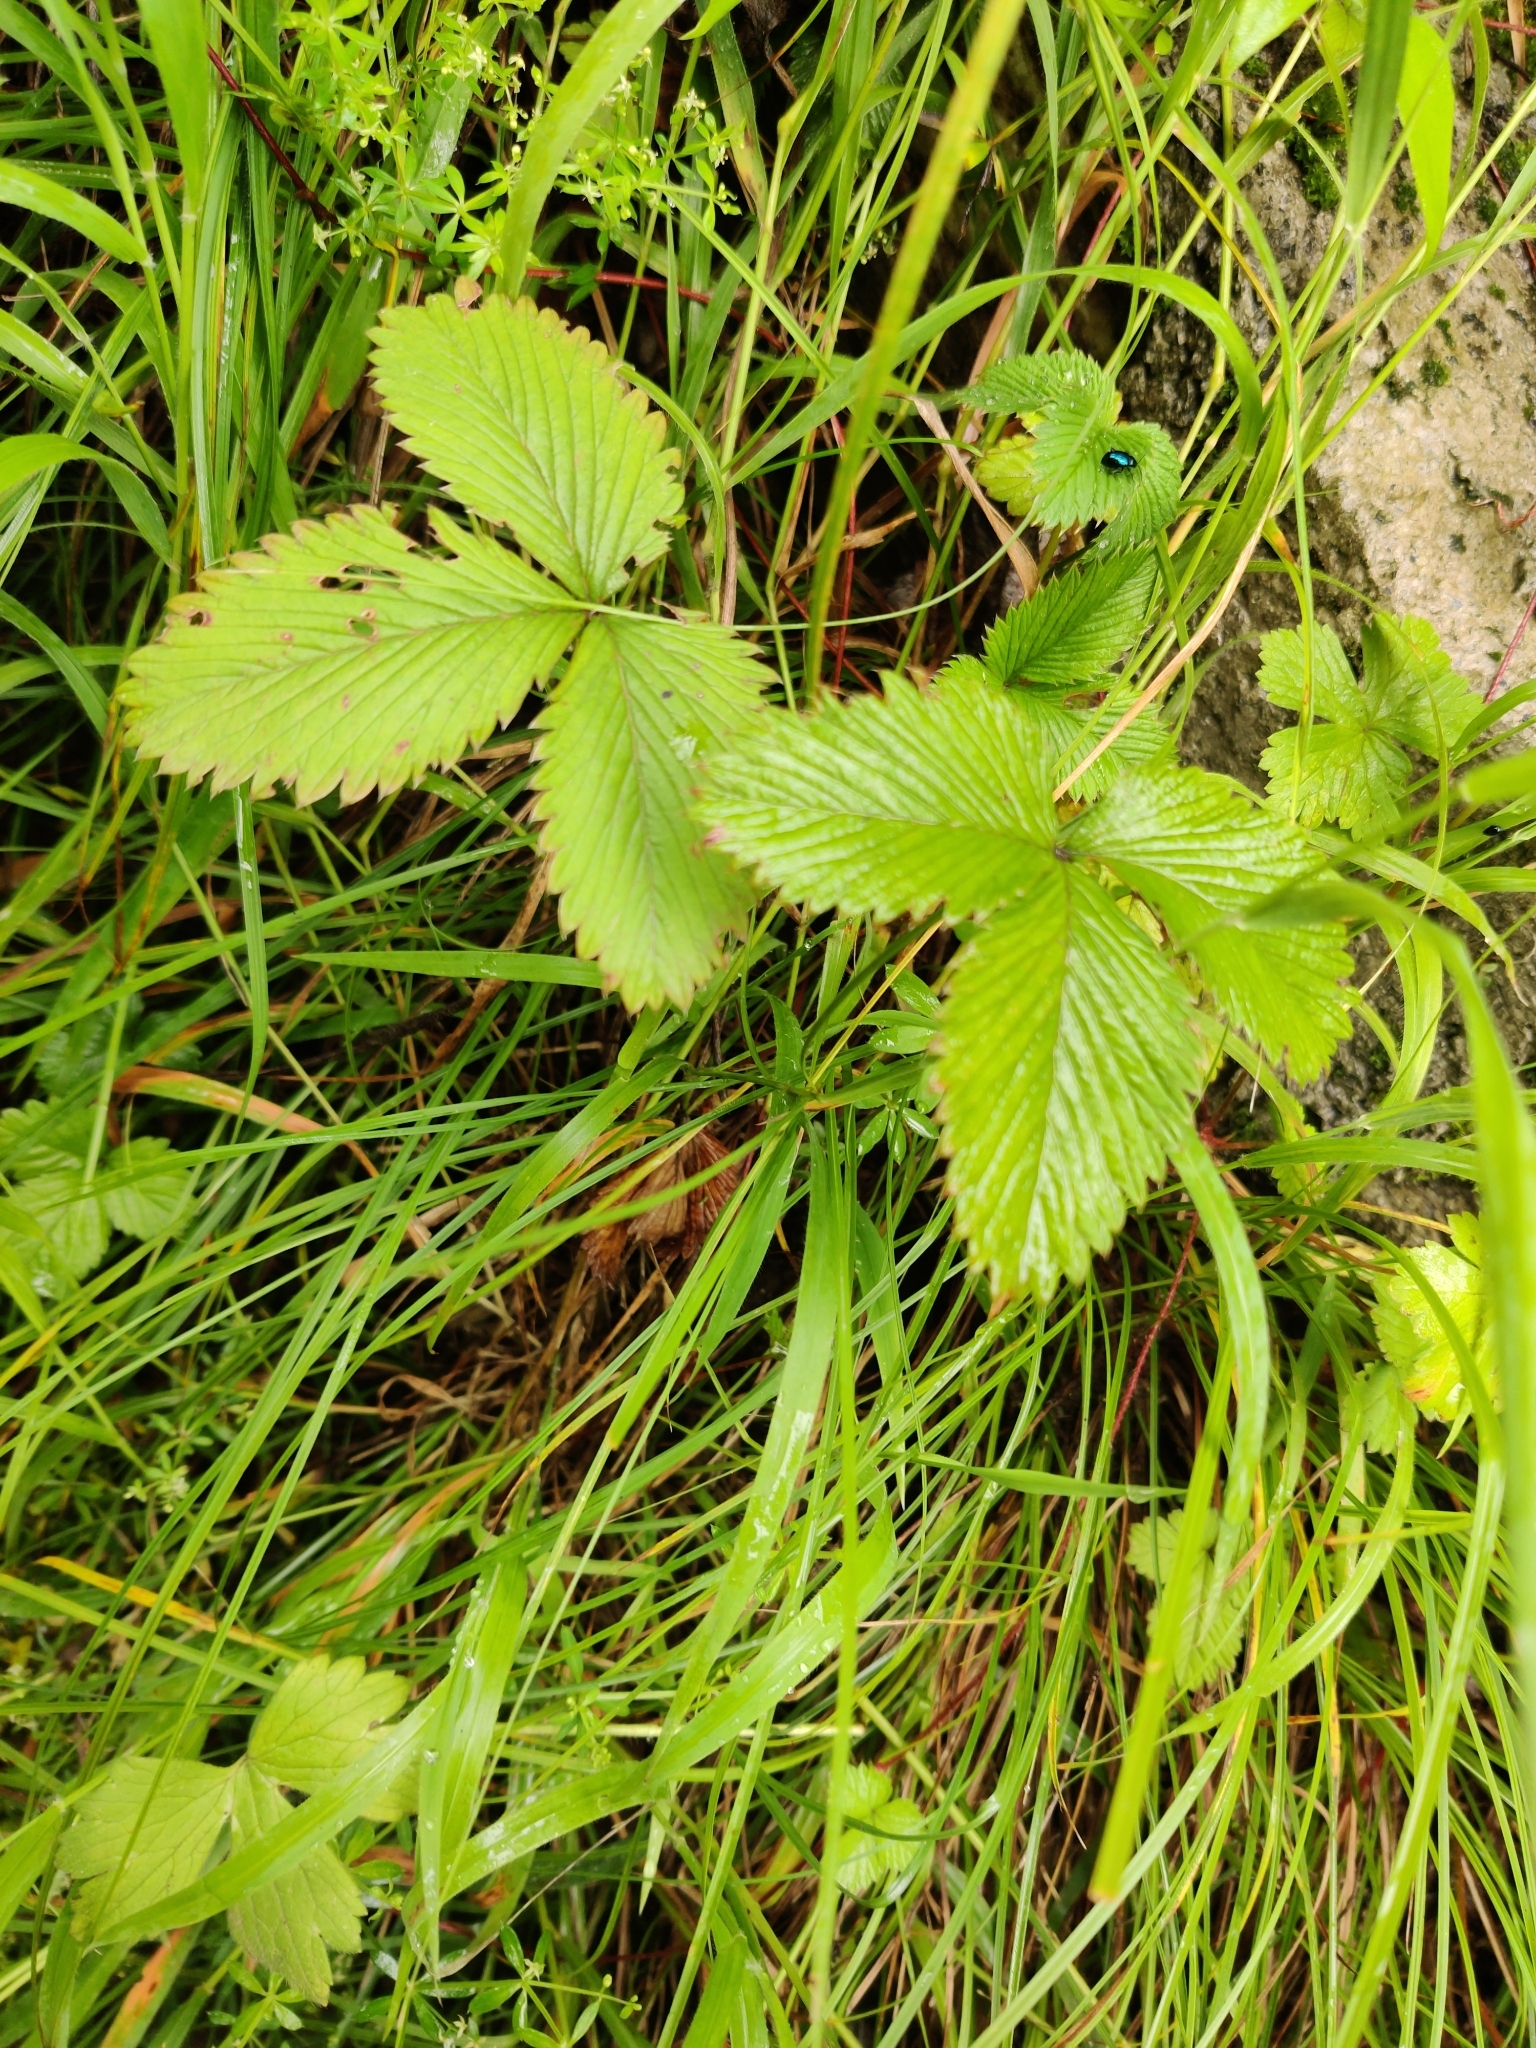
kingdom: Plantae
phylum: Tracheophyta
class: Magnoliopsida
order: Rosales
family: Rosaceae
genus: Fragaria
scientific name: Fragaria nubicola
